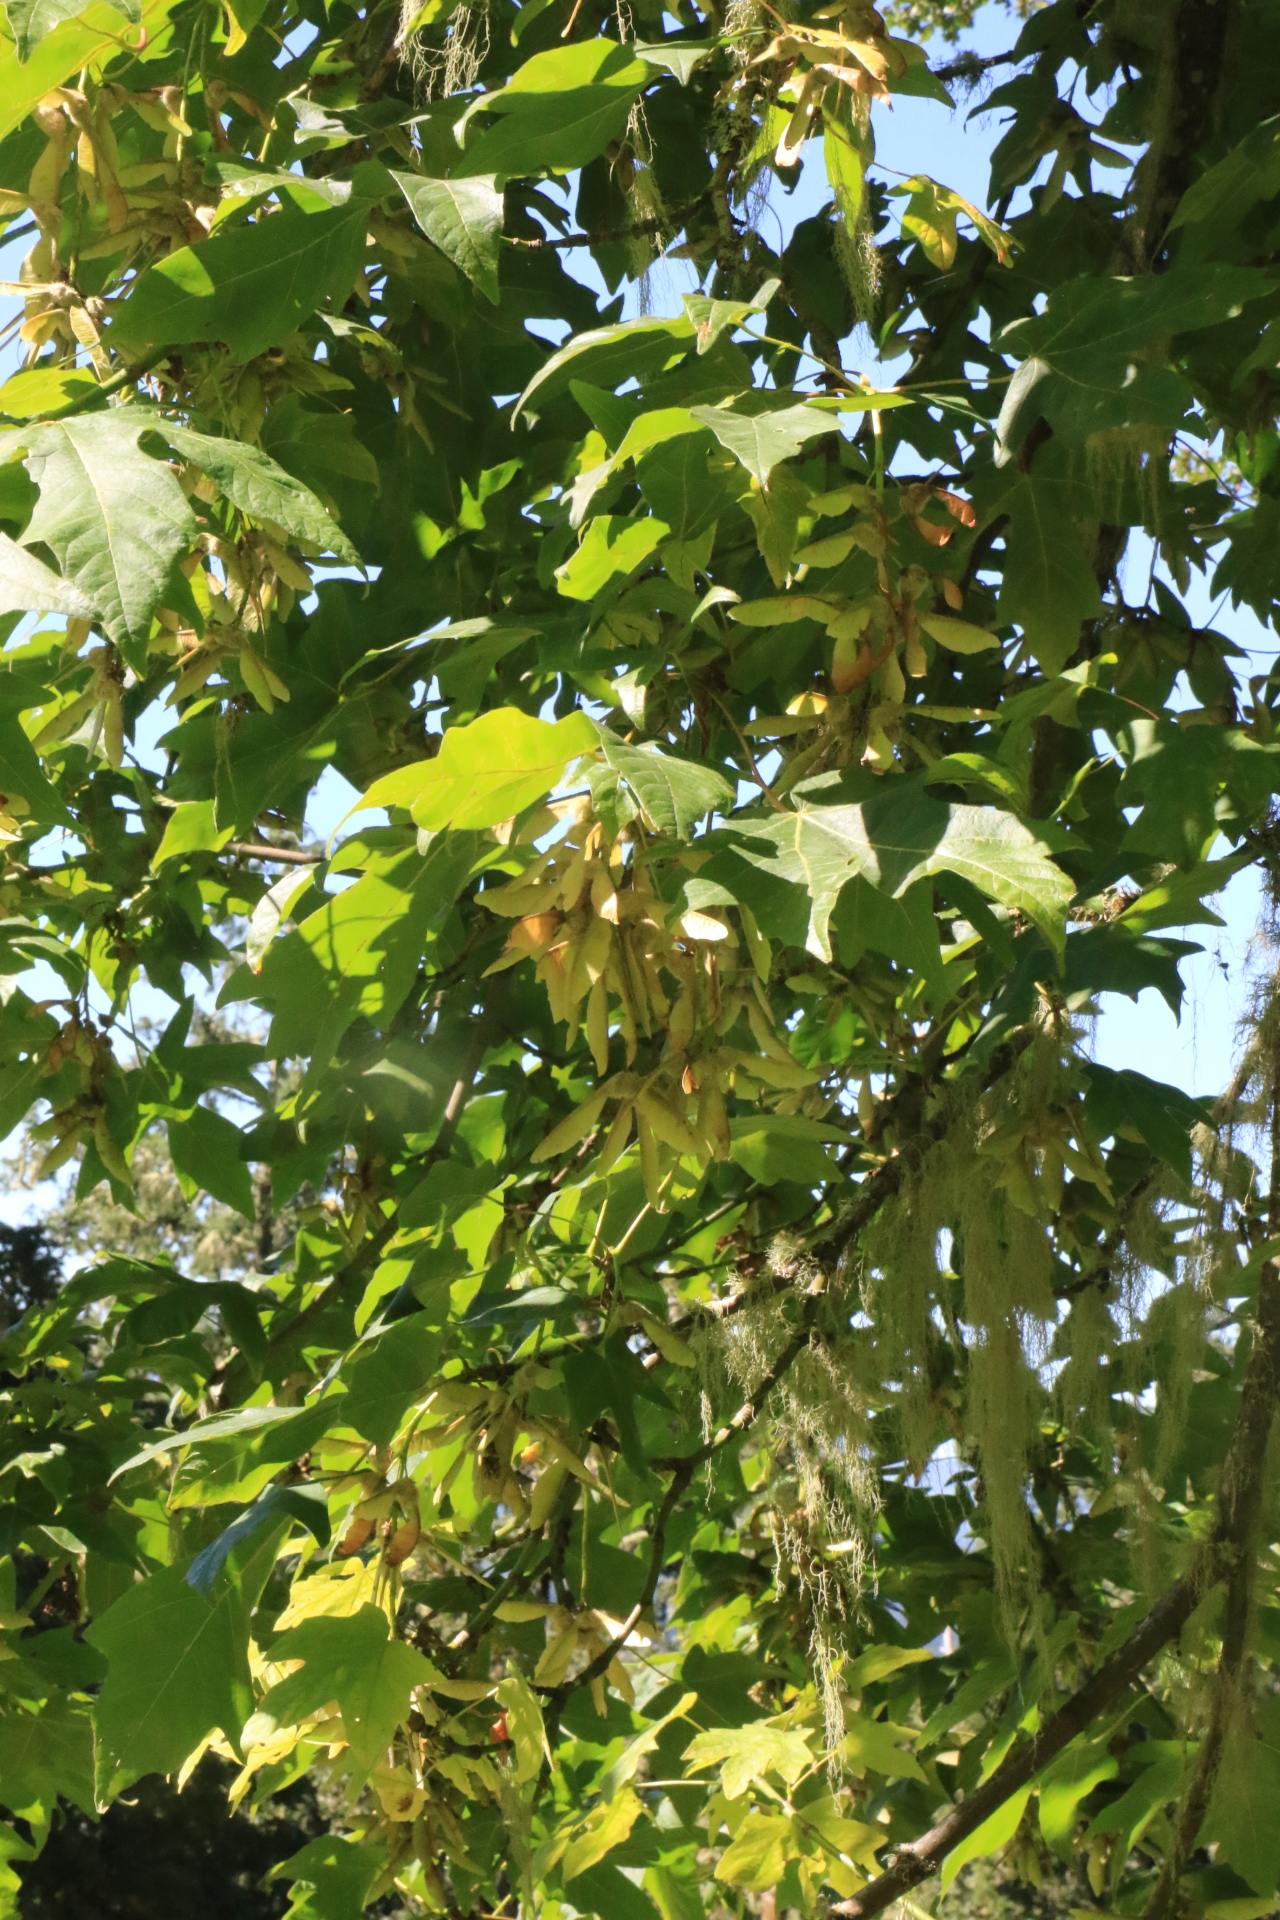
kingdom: Plantae
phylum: Tracheophyta
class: Magnoliopsida
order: Sapindales
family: Sapindaceae
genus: Acer
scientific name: Acer macrophyllum
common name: Oregon maple
